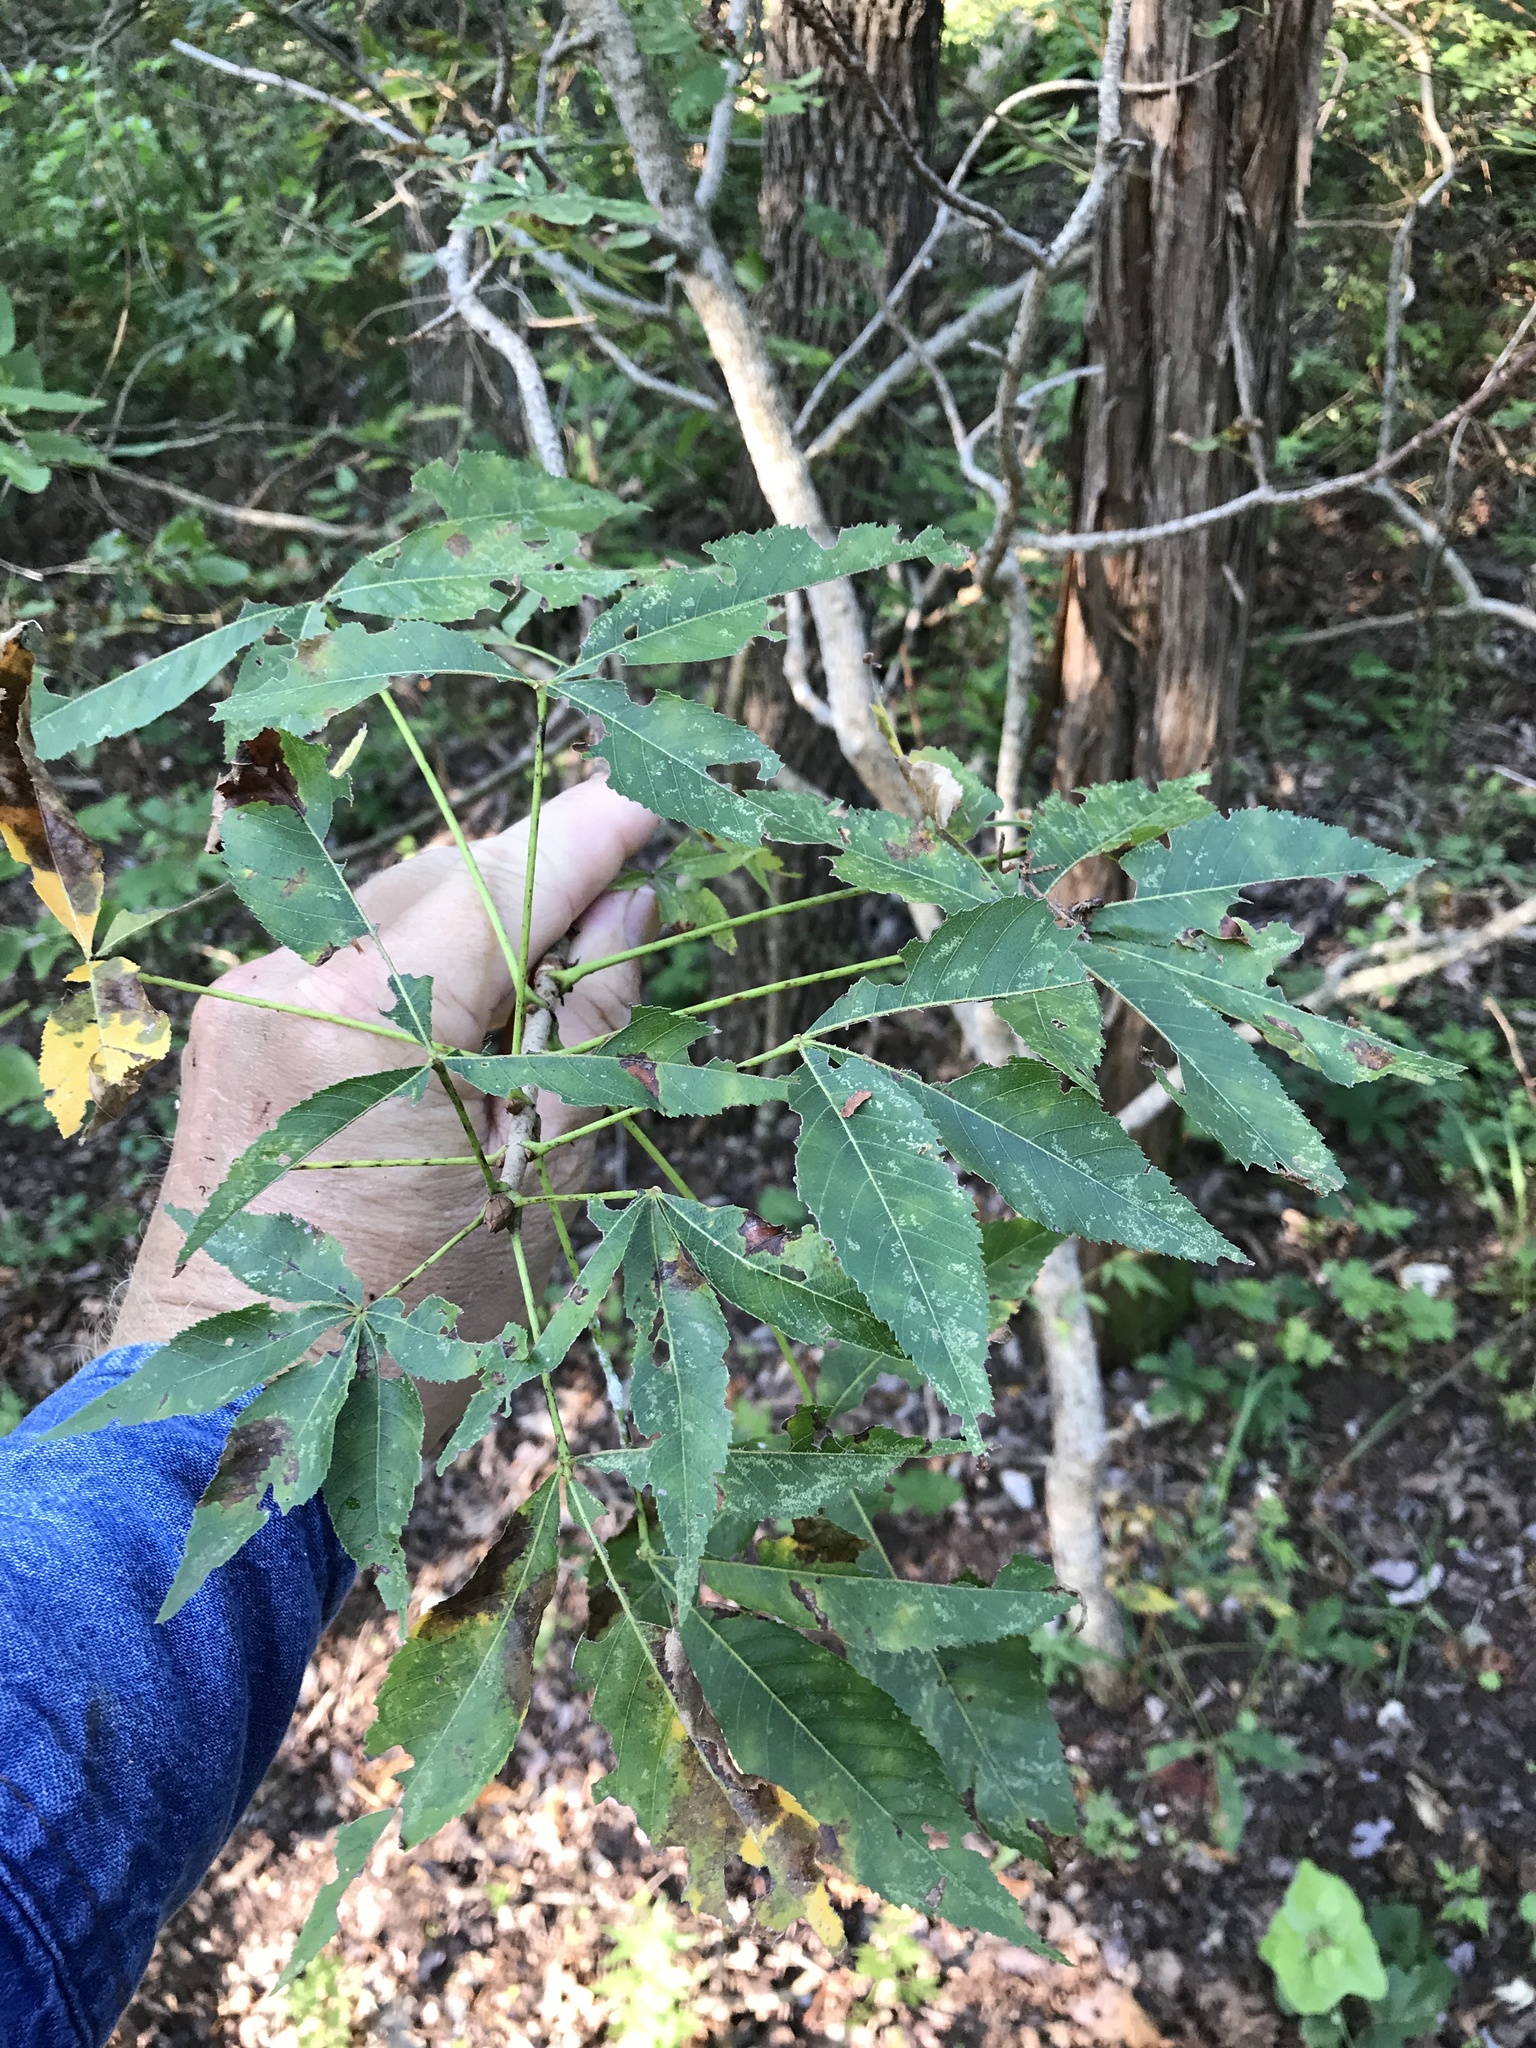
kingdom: Plantae
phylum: Tracheophyta
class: Magnoliopsida
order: Sapindales
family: Sapindaceae
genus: Aesculus
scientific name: Aesculus glabra
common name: Ohio buckeye
